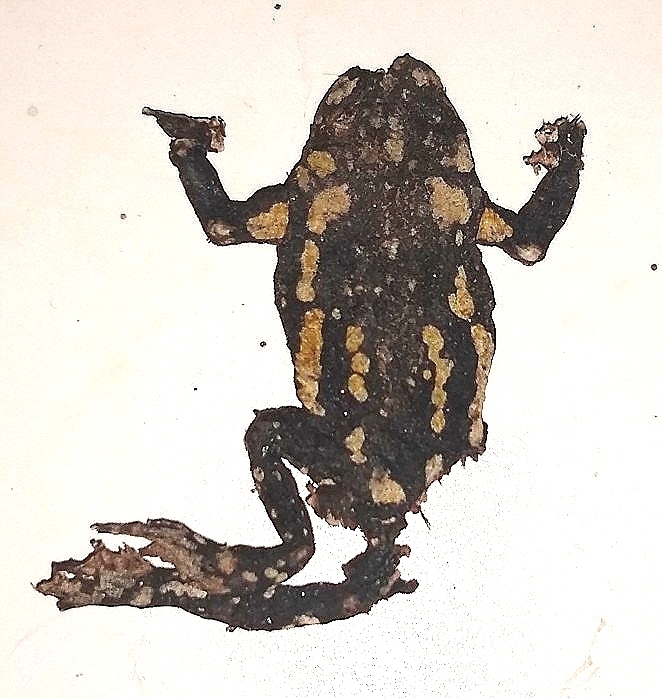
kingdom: Animalia
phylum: Chordata
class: Amphibia
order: Anura
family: Bufonidae
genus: Melanophryniscus
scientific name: Melanophryniscus stelzneri
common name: Redbelly toad
